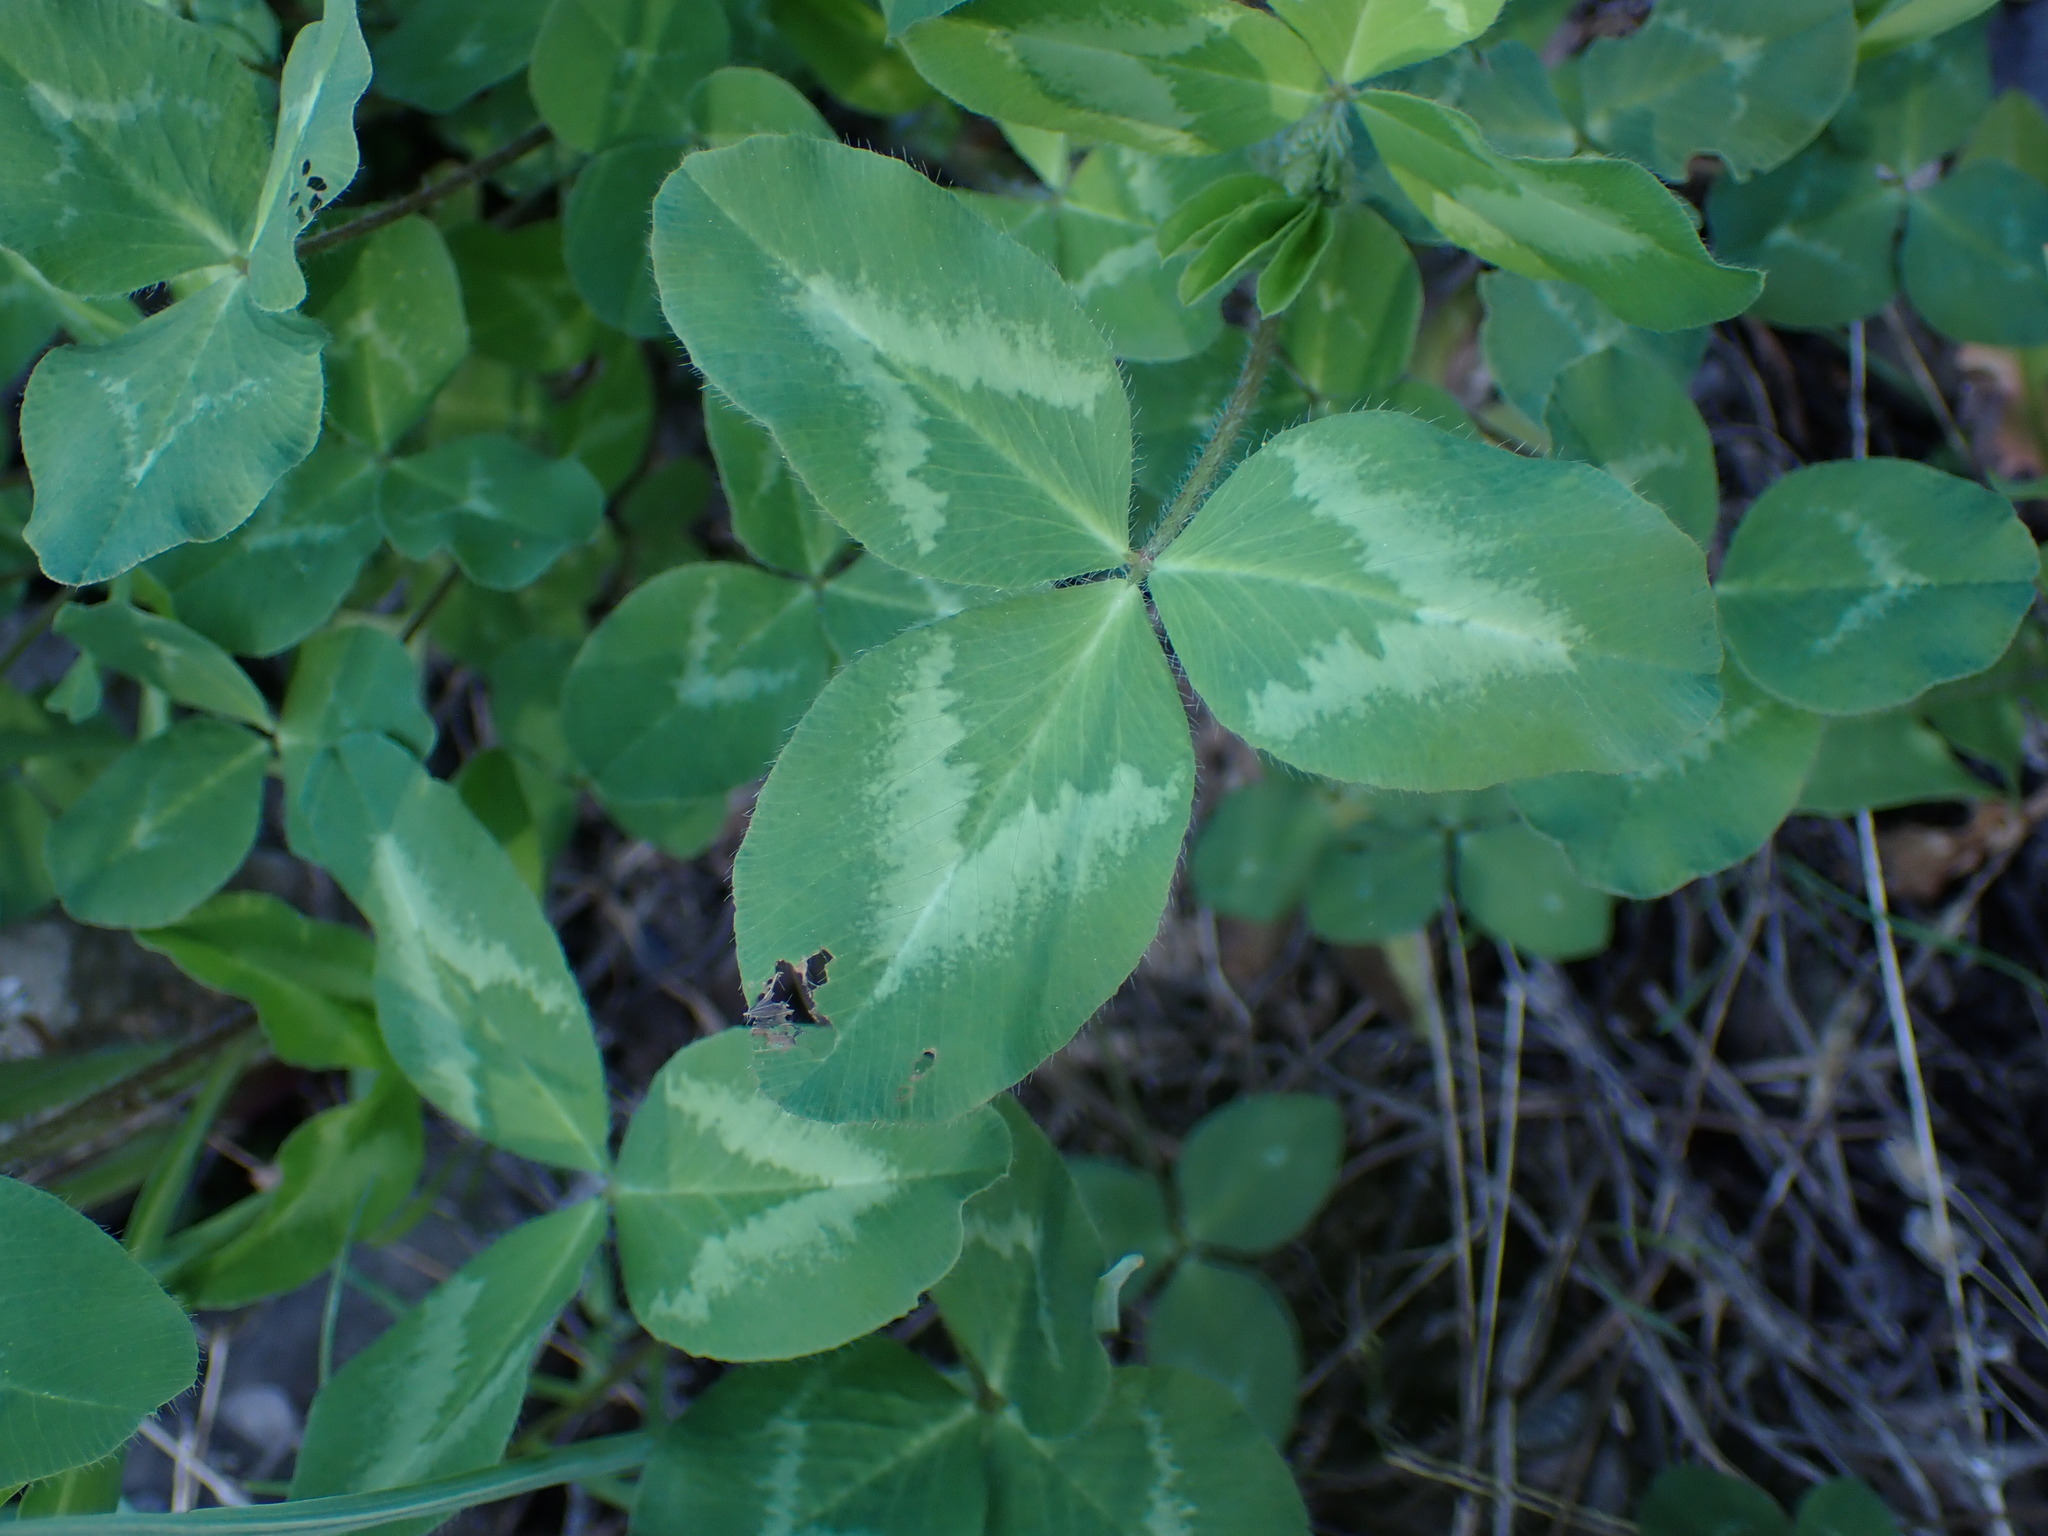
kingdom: Plantae
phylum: Tracheophyta
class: Magnoliopsida
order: Fabales
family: Fabaceae
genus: Trifolium
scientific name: Trifolium pratense
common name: Red clover
